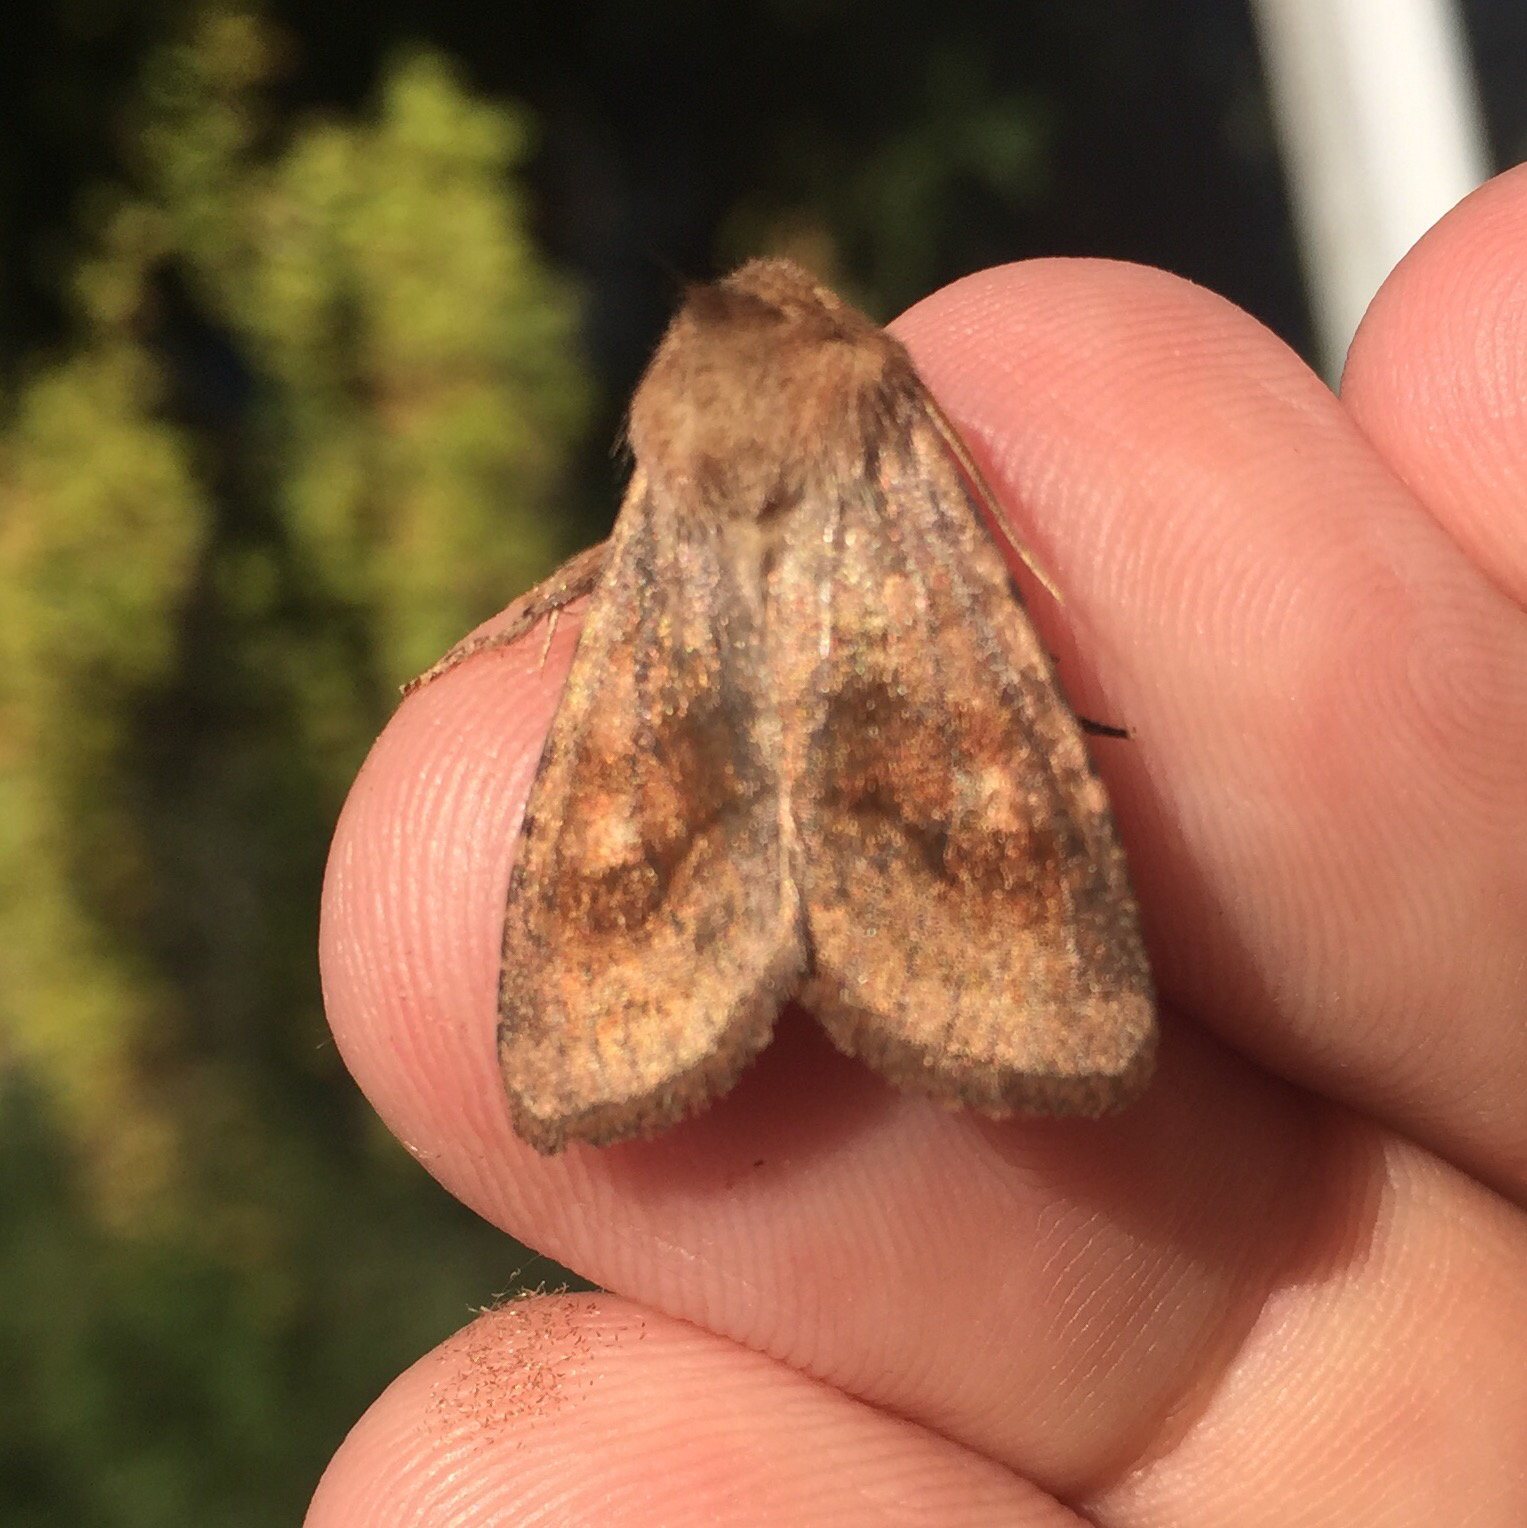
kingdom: Animalia
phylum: Arthropoda
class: Insecta
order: Lepidoptera
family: Noctuidae
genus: Nephelodes
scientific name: Nephelodes minians
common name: Bronzed cutworm
